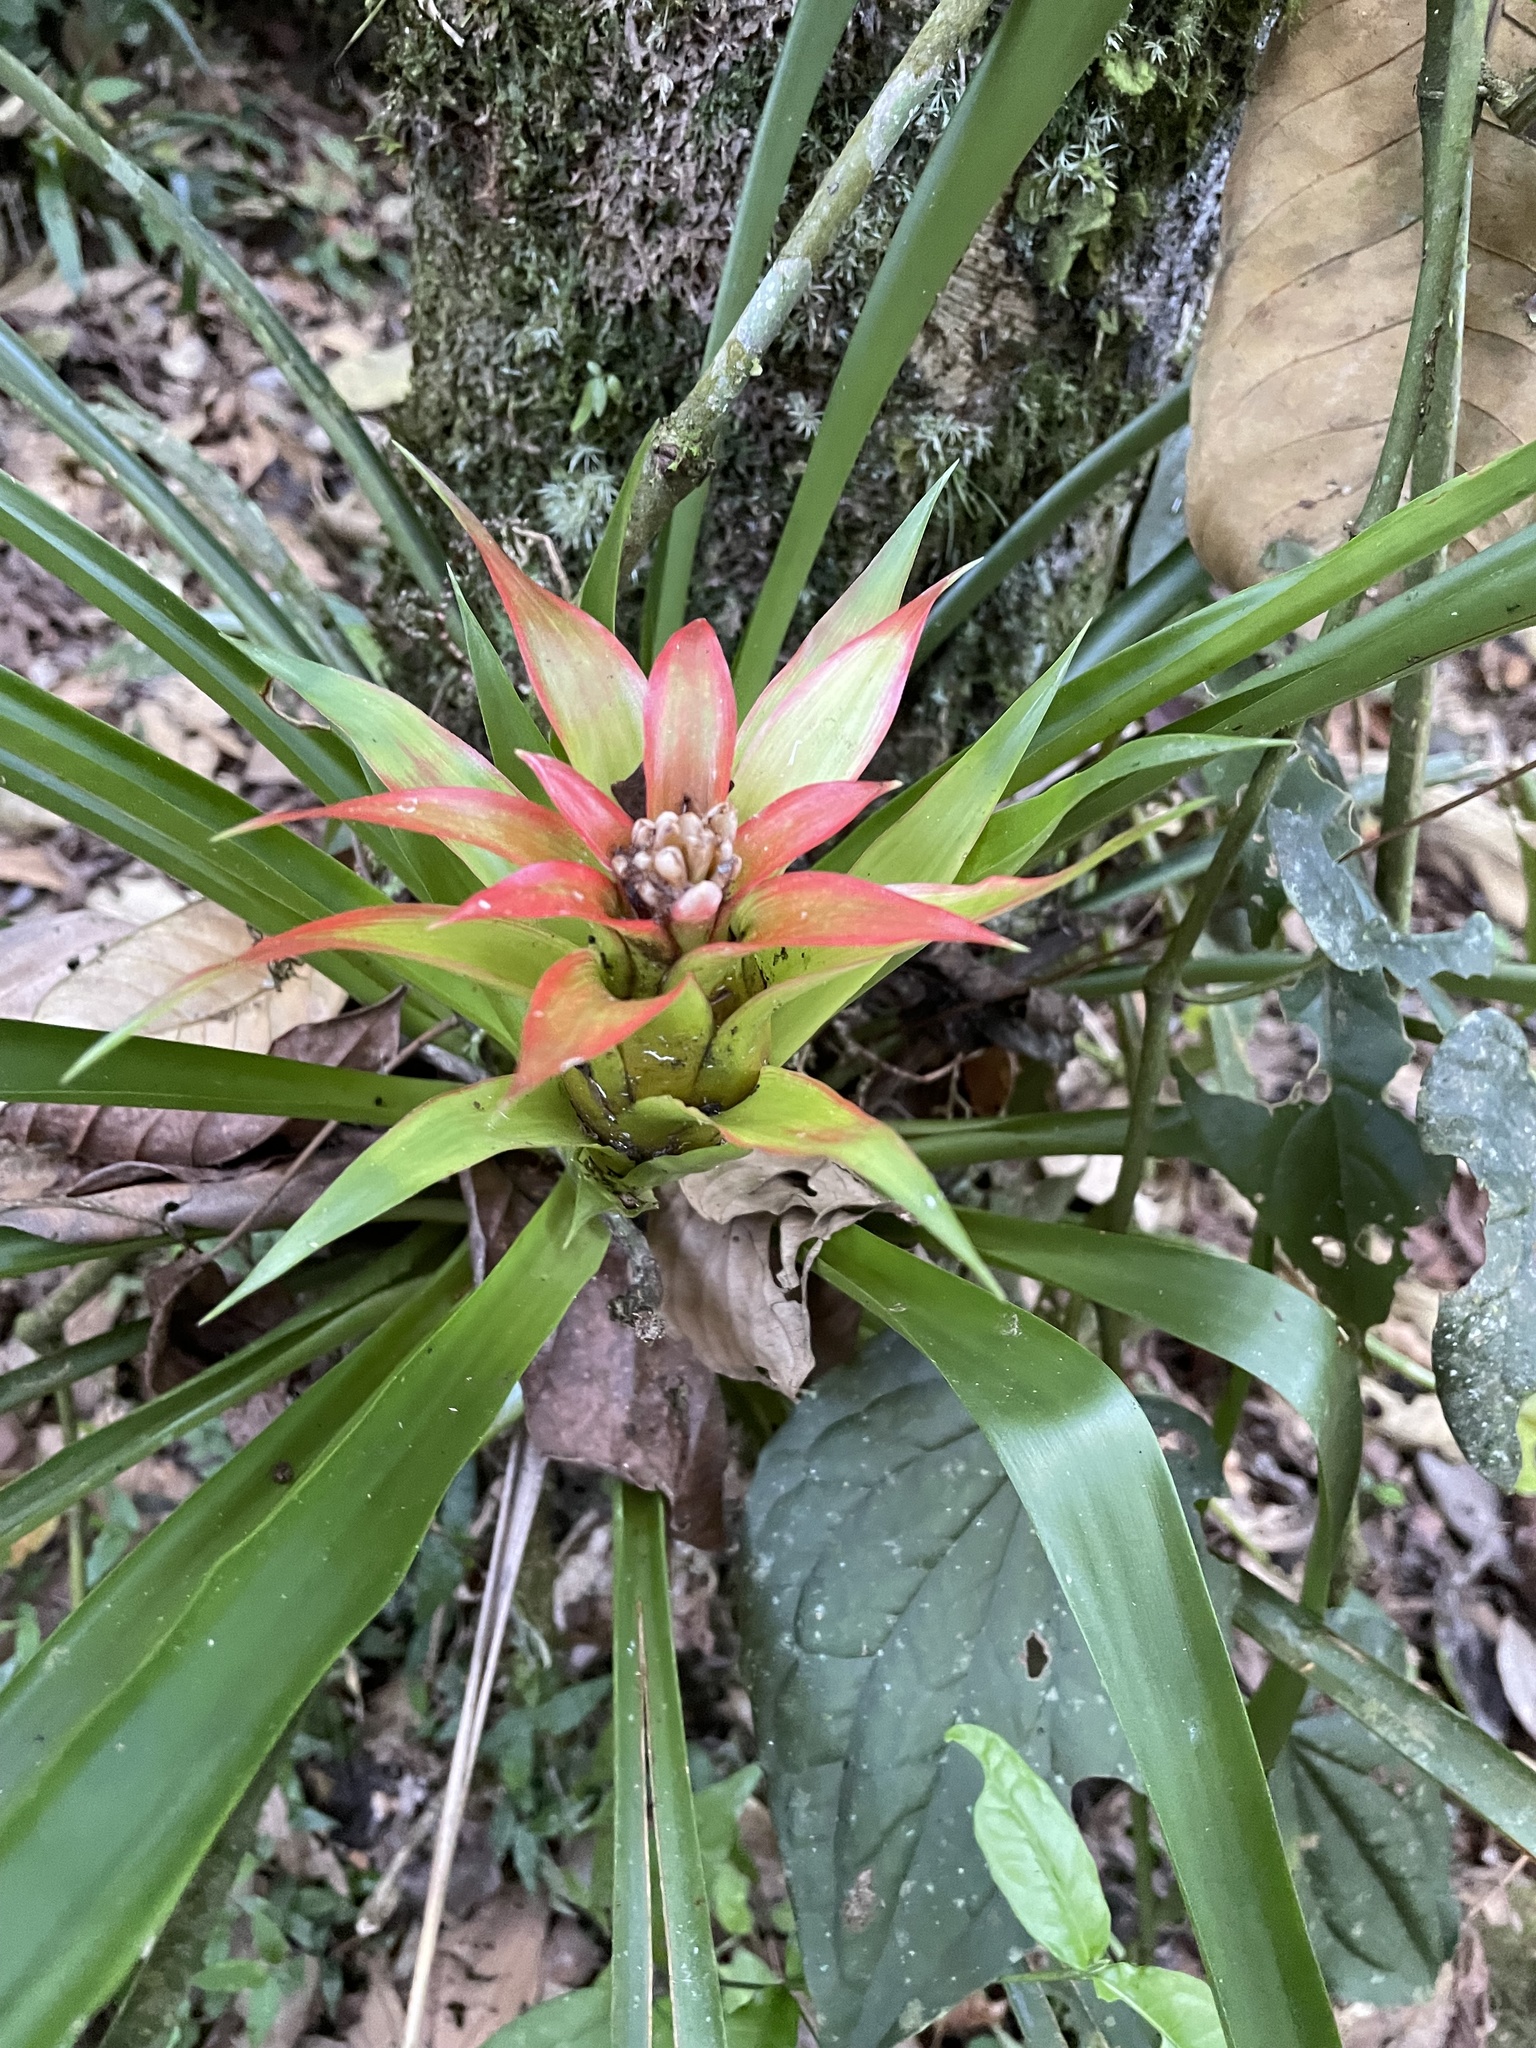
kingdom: Plantae
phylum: Tracheophyta
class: Liliopsida
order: Poales
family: Bromeliaceae
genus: Guzmania
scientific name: Guzmania lingulata
